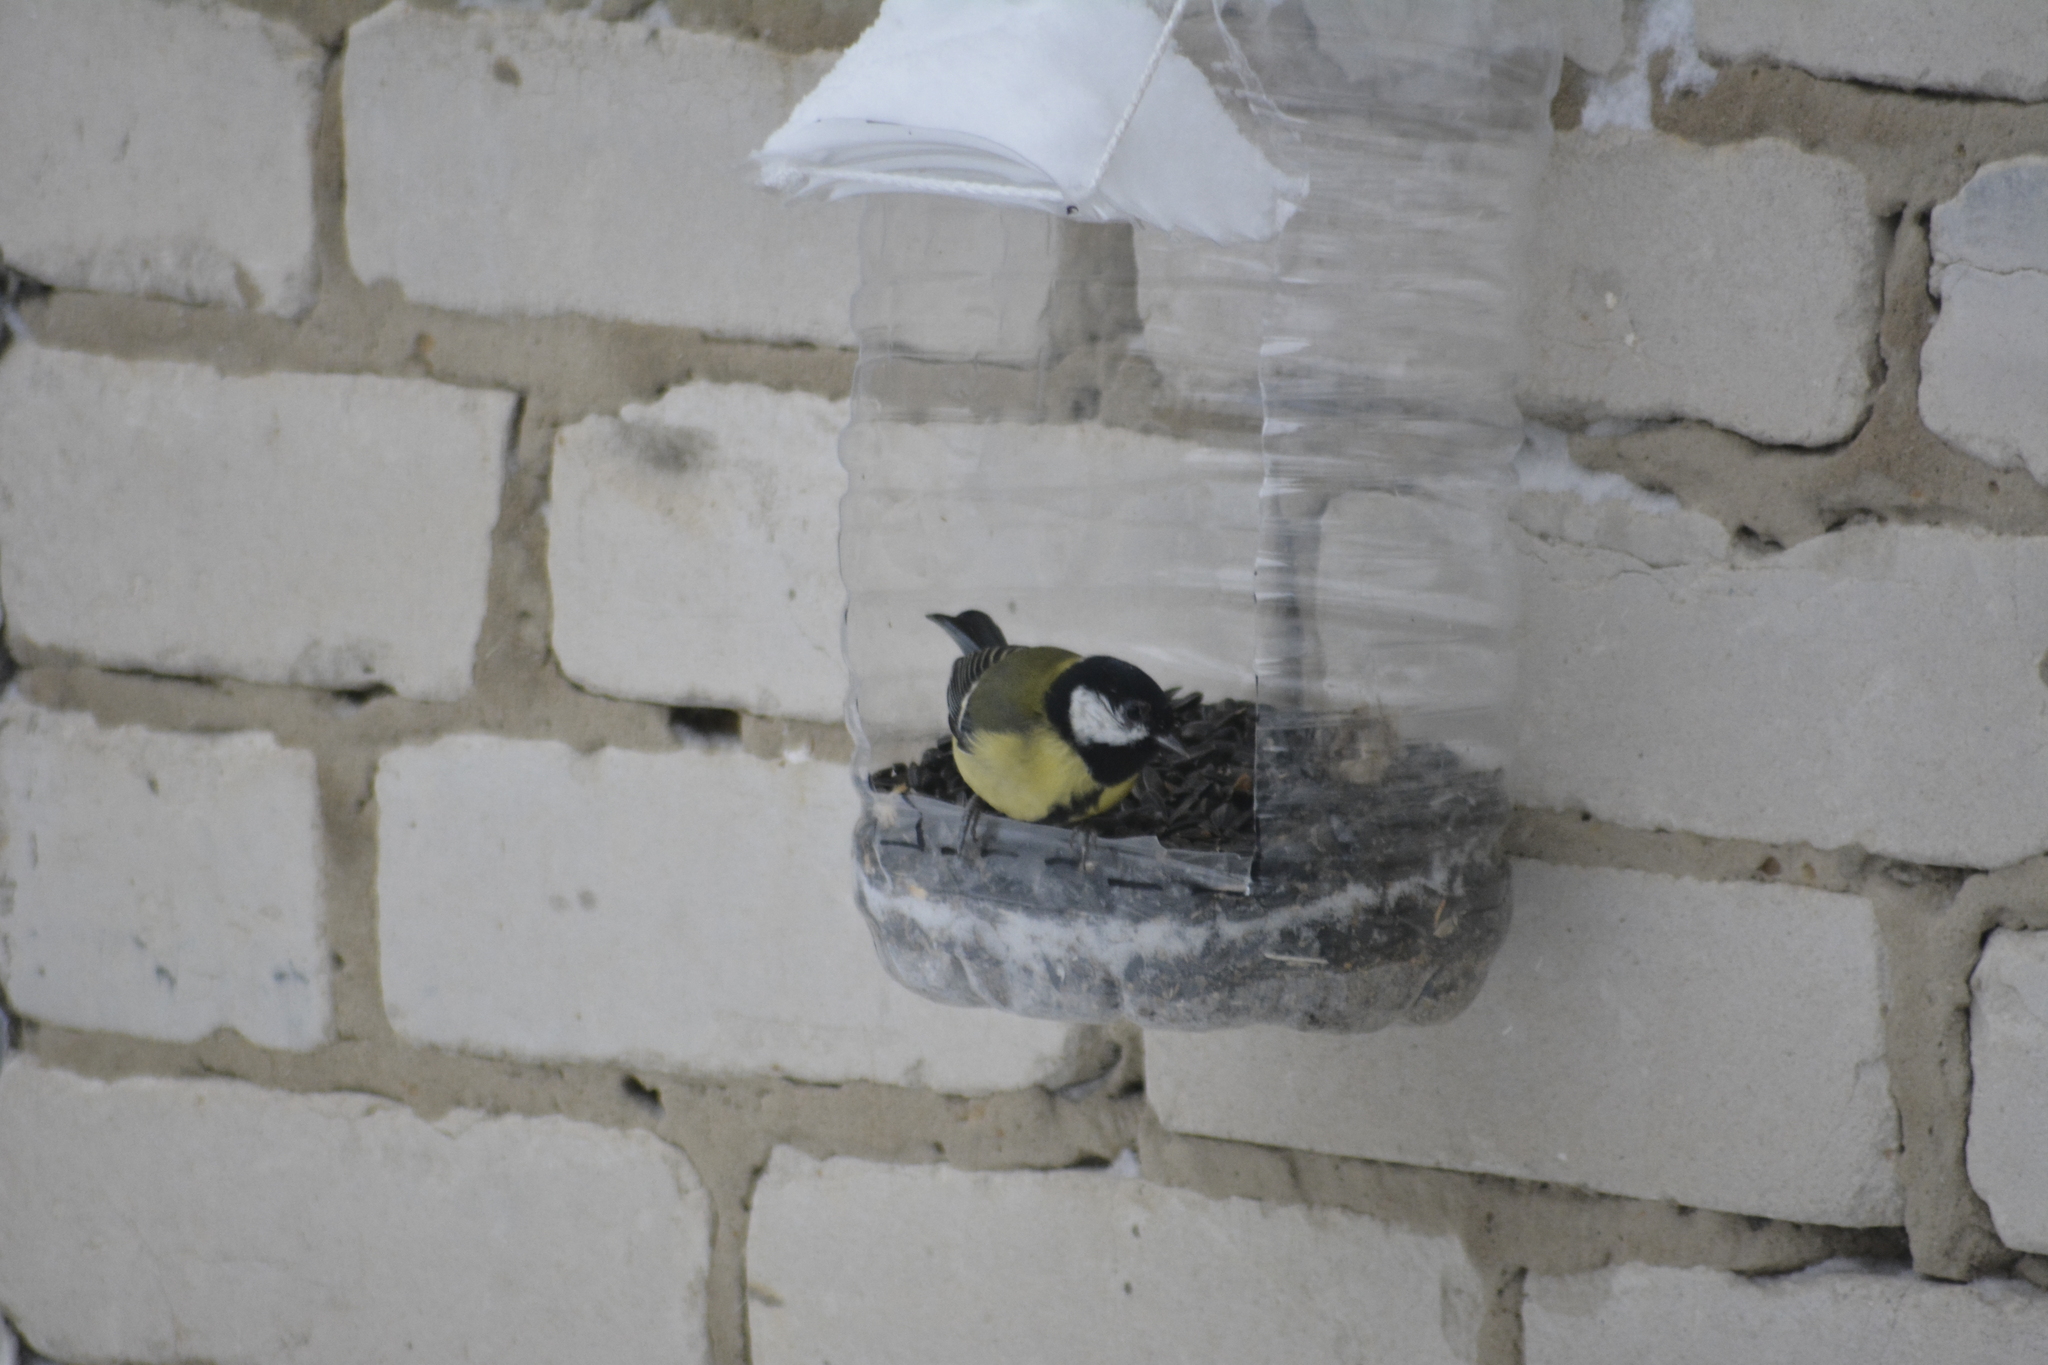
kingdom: Animalia
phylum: Chordata
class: Aves
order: Passeriformes
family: Paridae
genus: Parus
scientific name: Parus major
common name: Great tit
